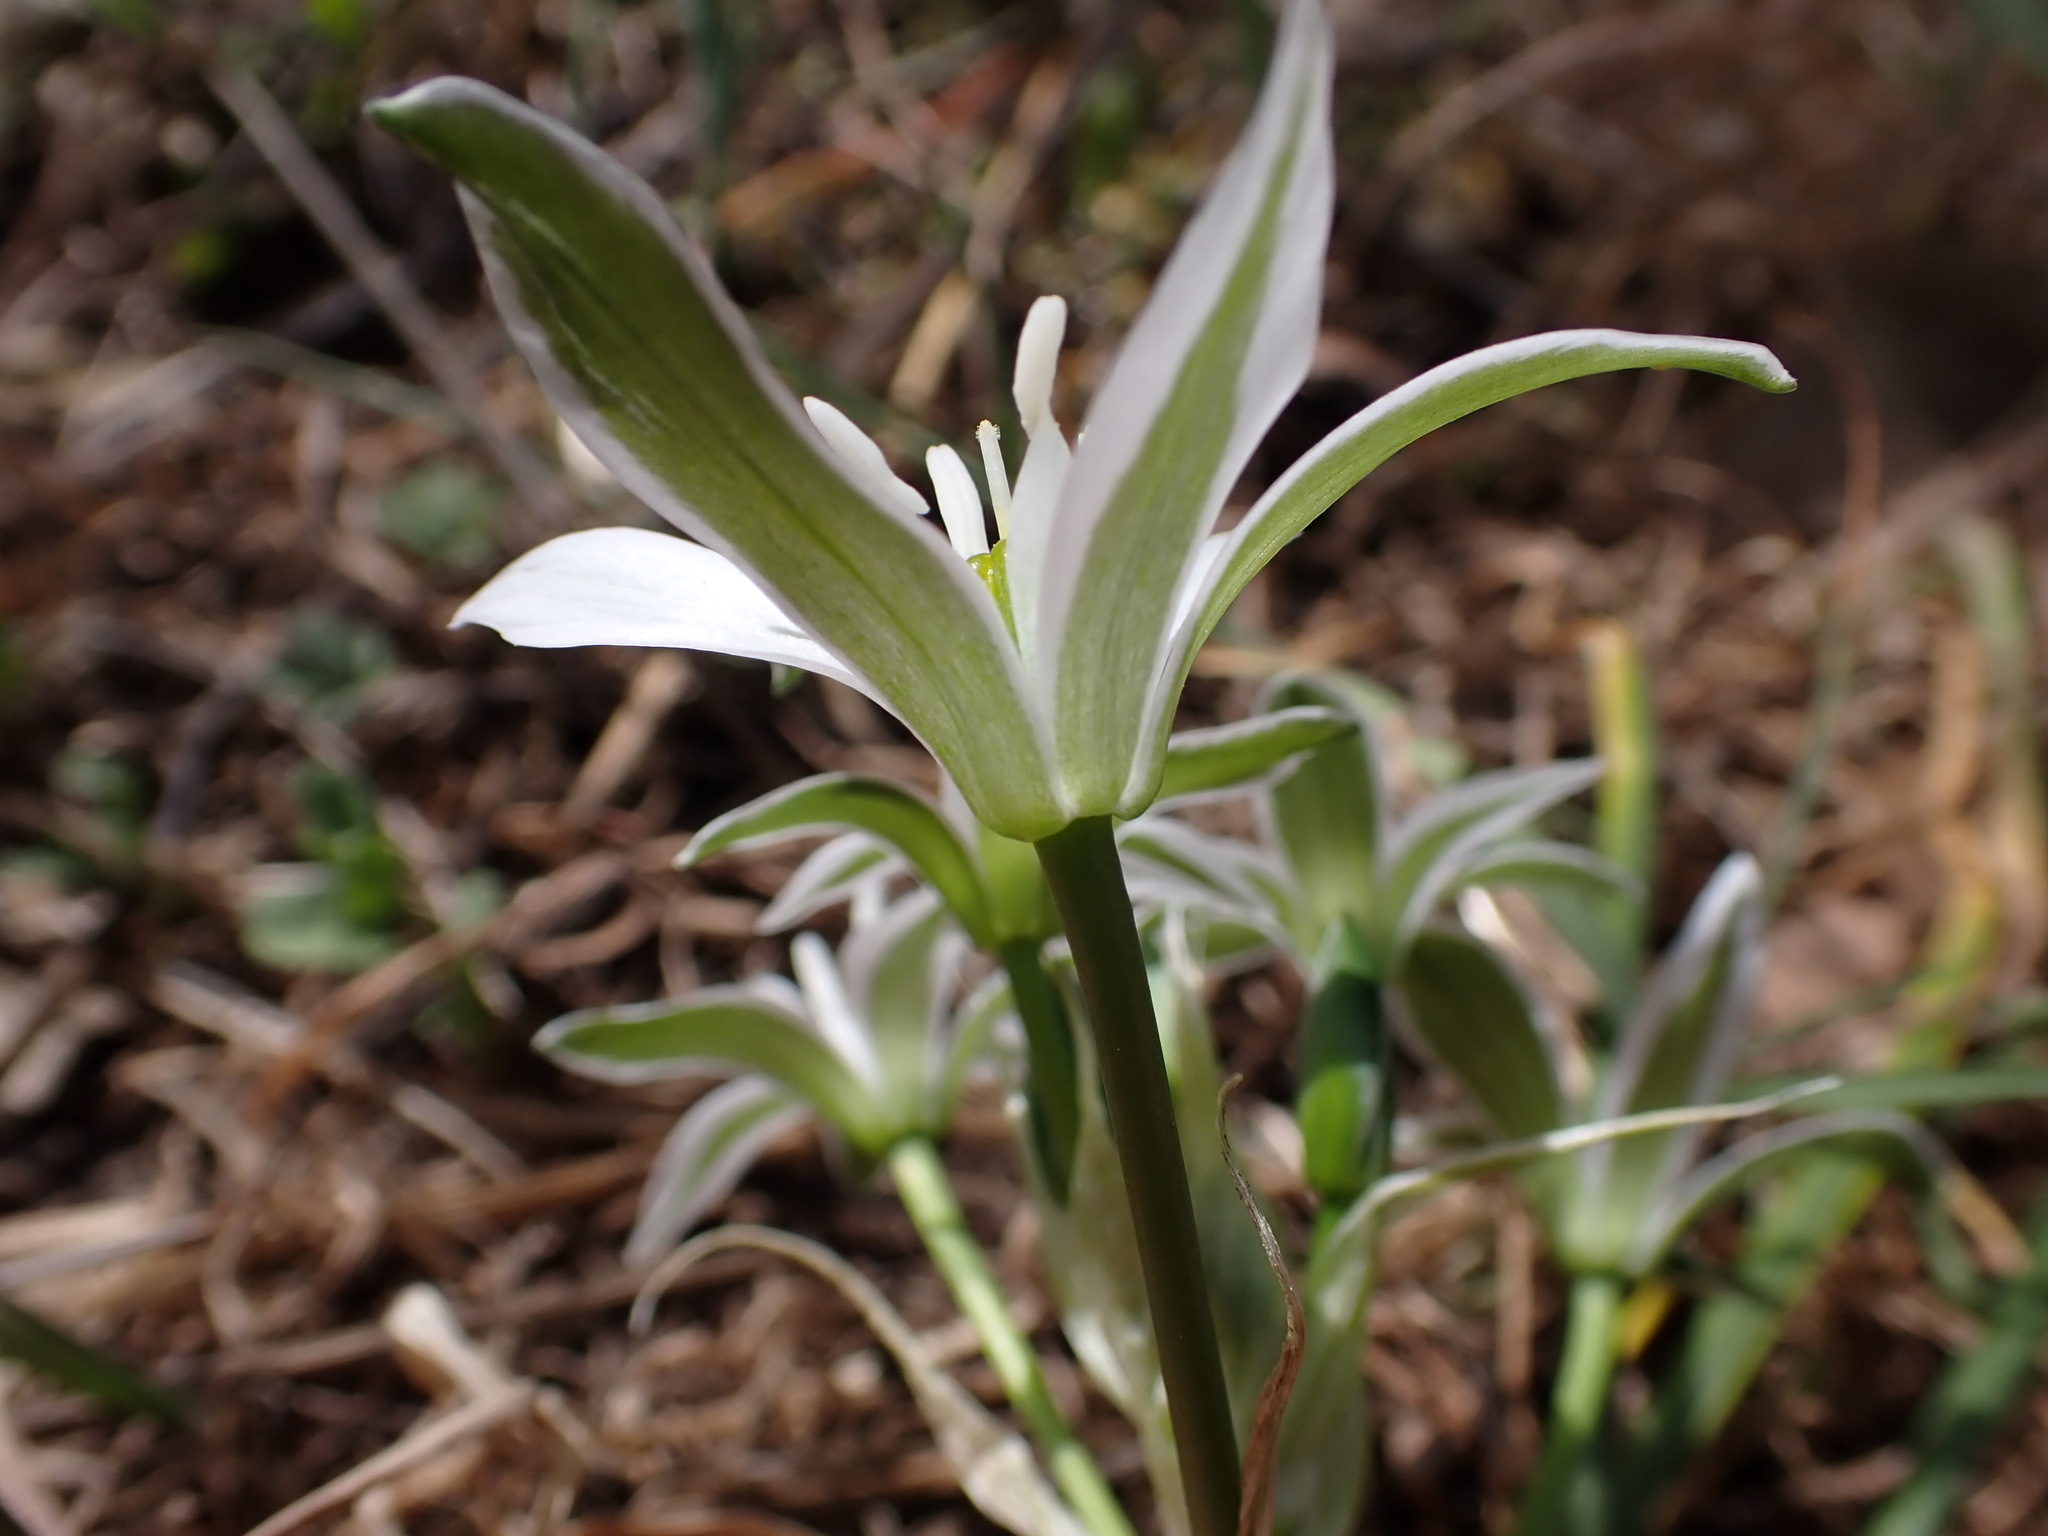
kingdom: Plantae
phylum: Tracheophyta
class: Liliopsida
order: Asparagales
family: Asparagaceae
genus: Ornithogalum
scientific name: Ornithogalum divergens
